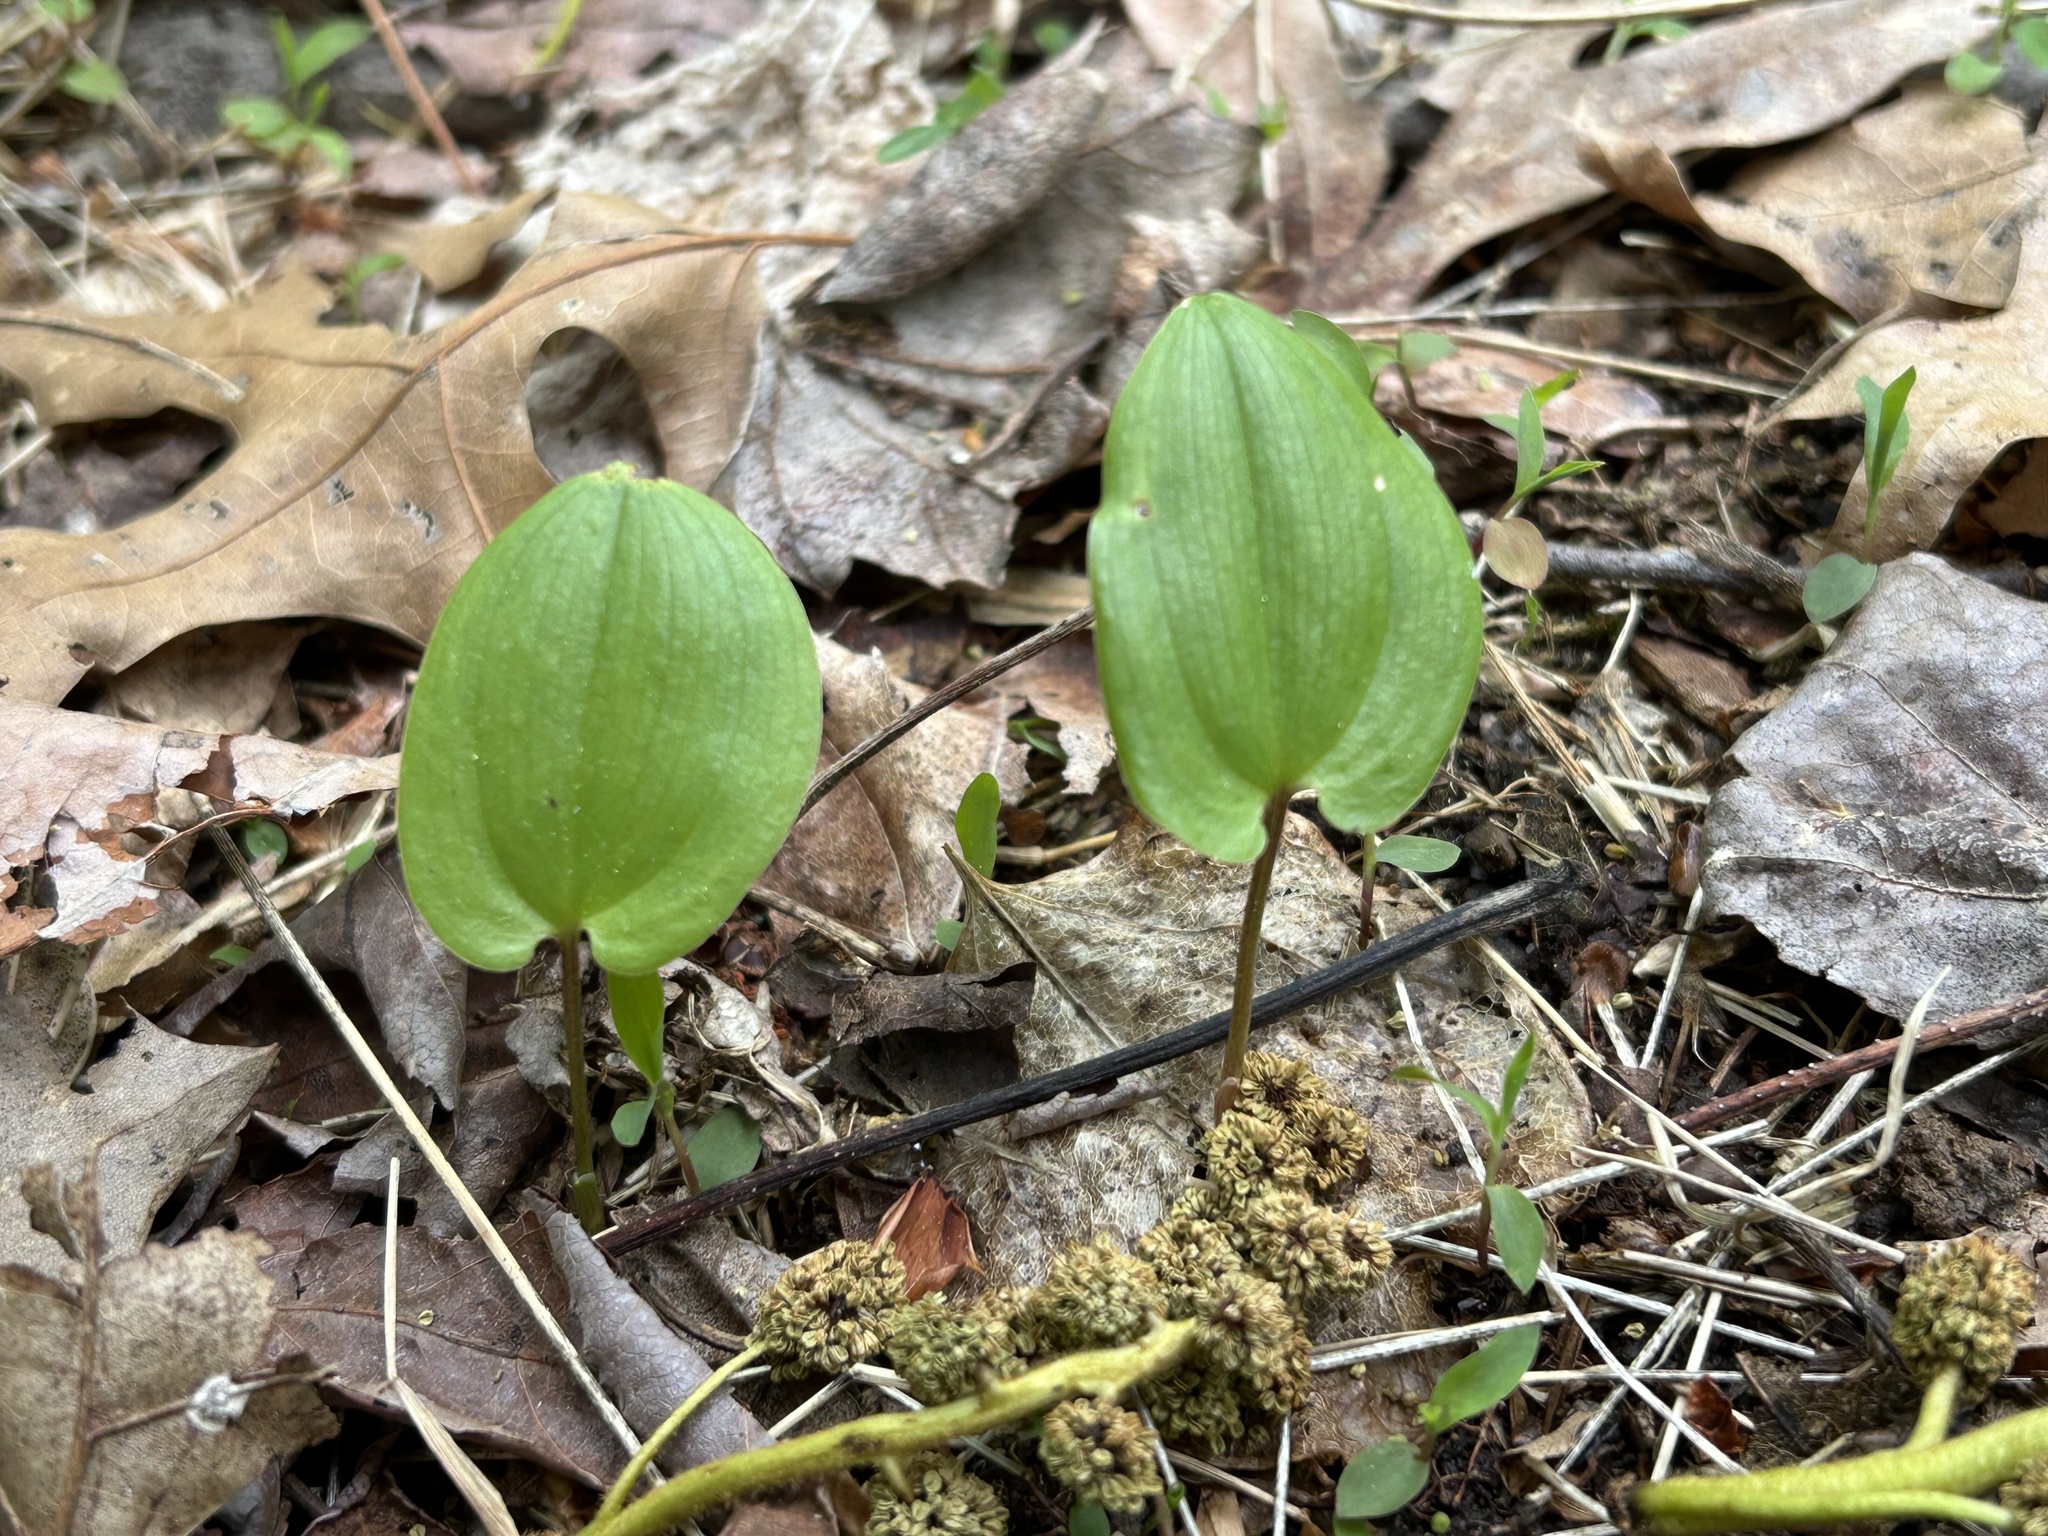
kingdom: Plantae
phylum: Tracheophyta
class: Liliopsida
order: Asparagales
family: Asparagaceae
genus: Maianthemum
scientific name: Maianthemum canadense
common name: False lily-of-the-valley
